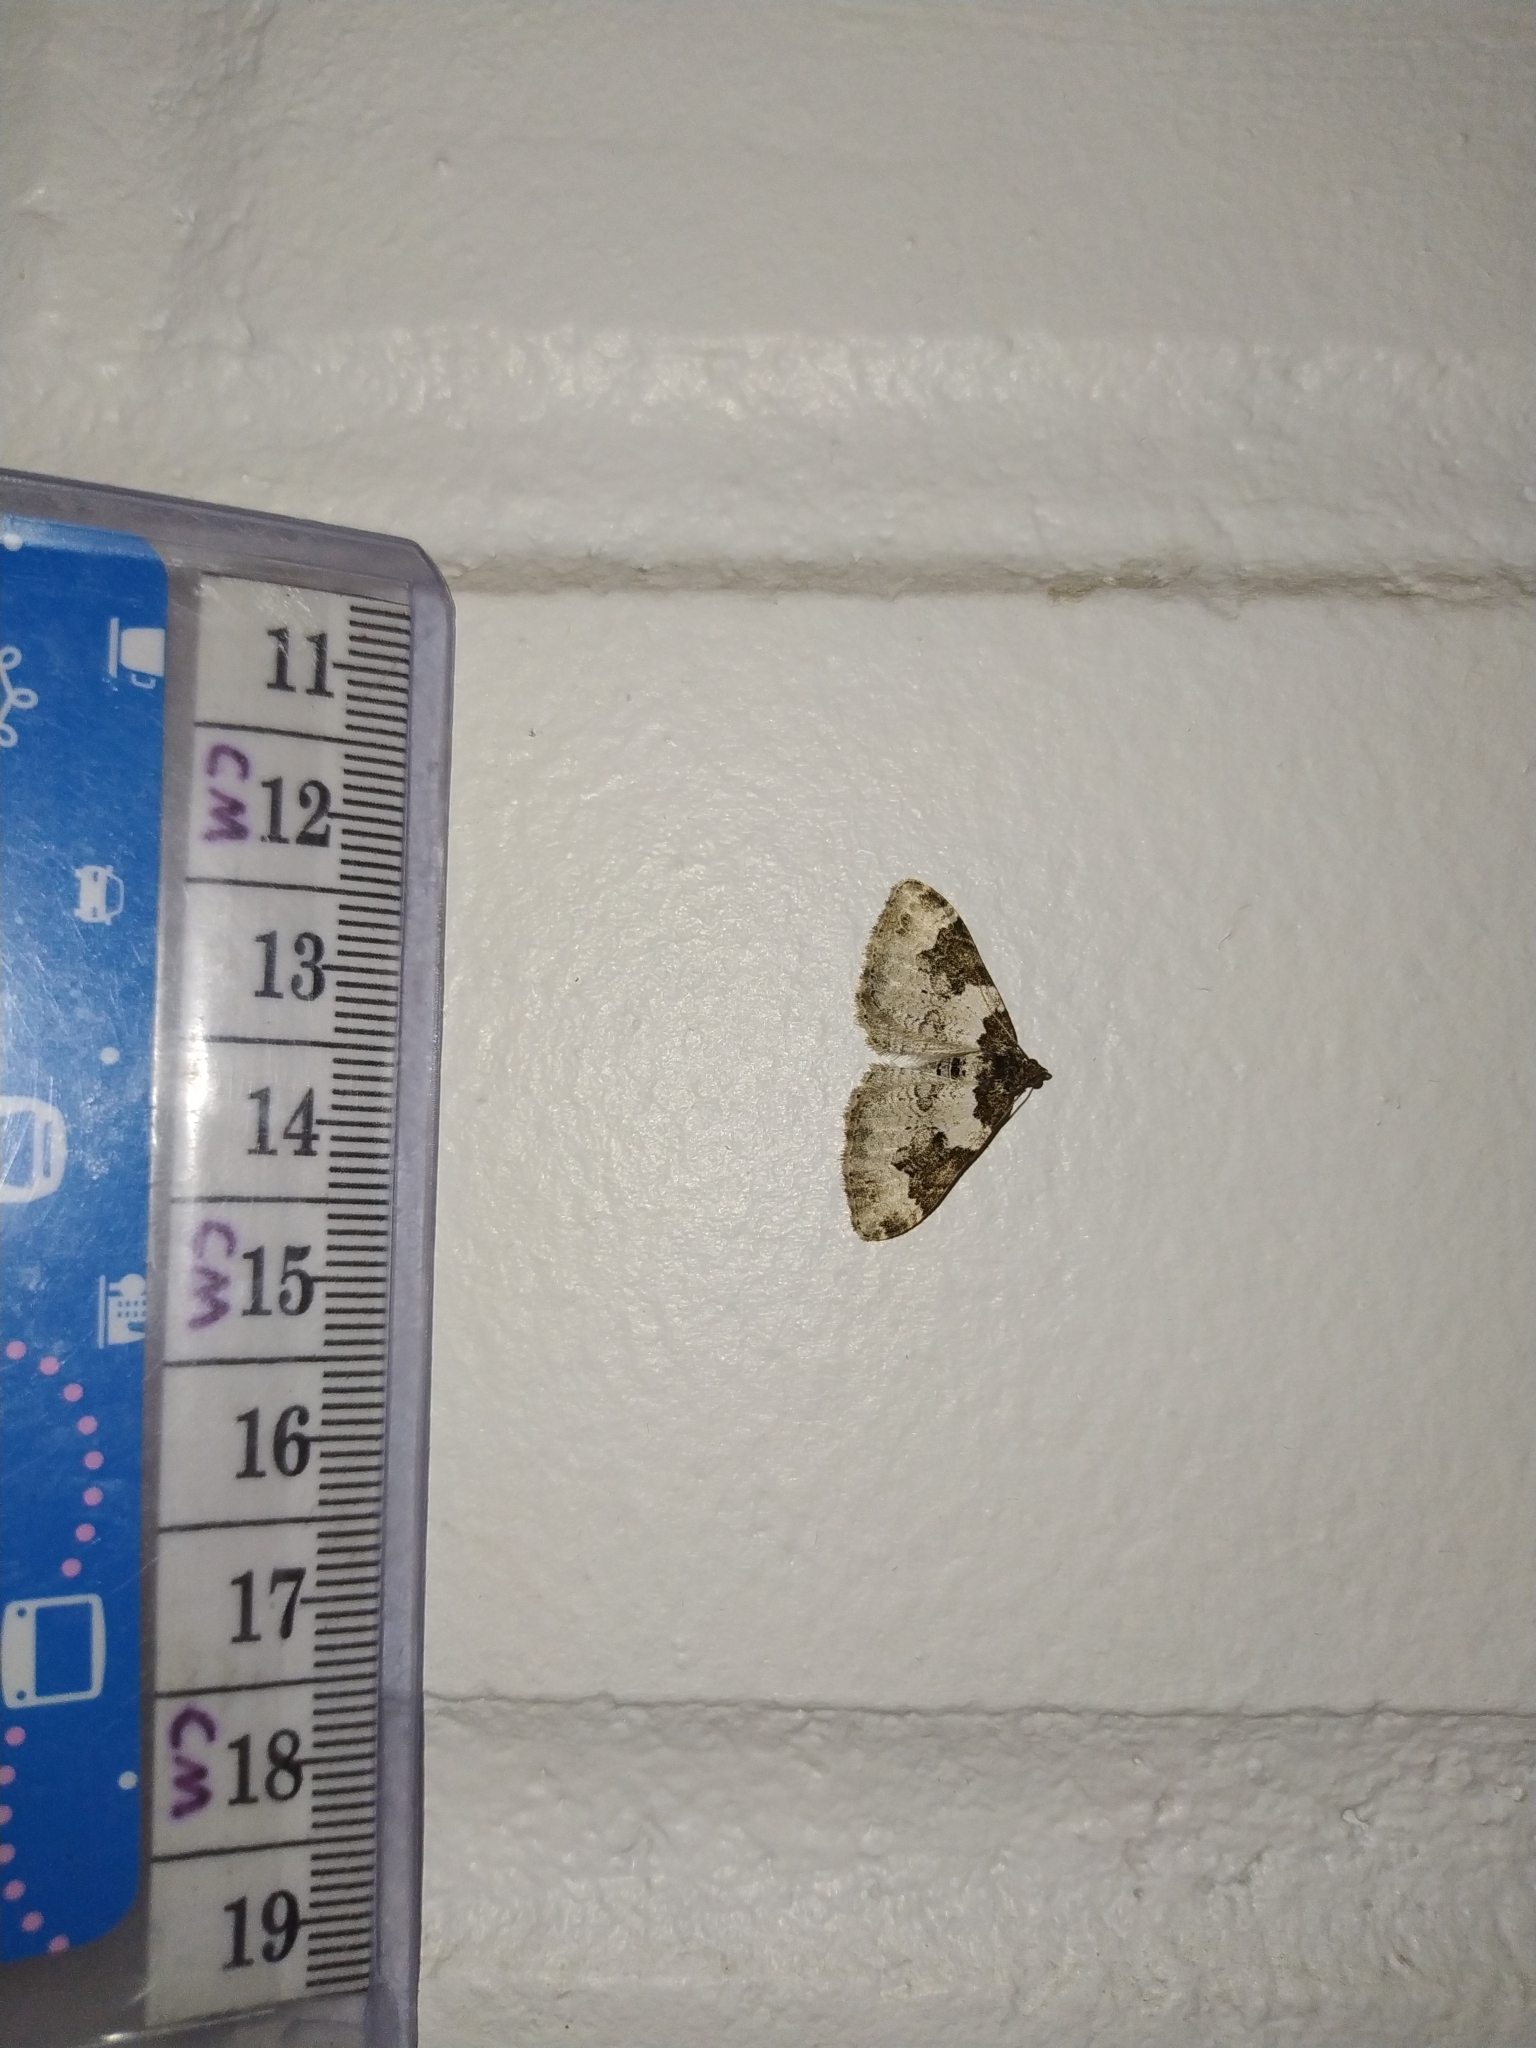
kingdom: Animalia
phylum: Arthropoda
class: Insecta
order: Lepidoptera
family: Geometridae
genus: Xanthorhoe
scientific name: Xanthorhoe fluctuata
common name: Garden carpet
